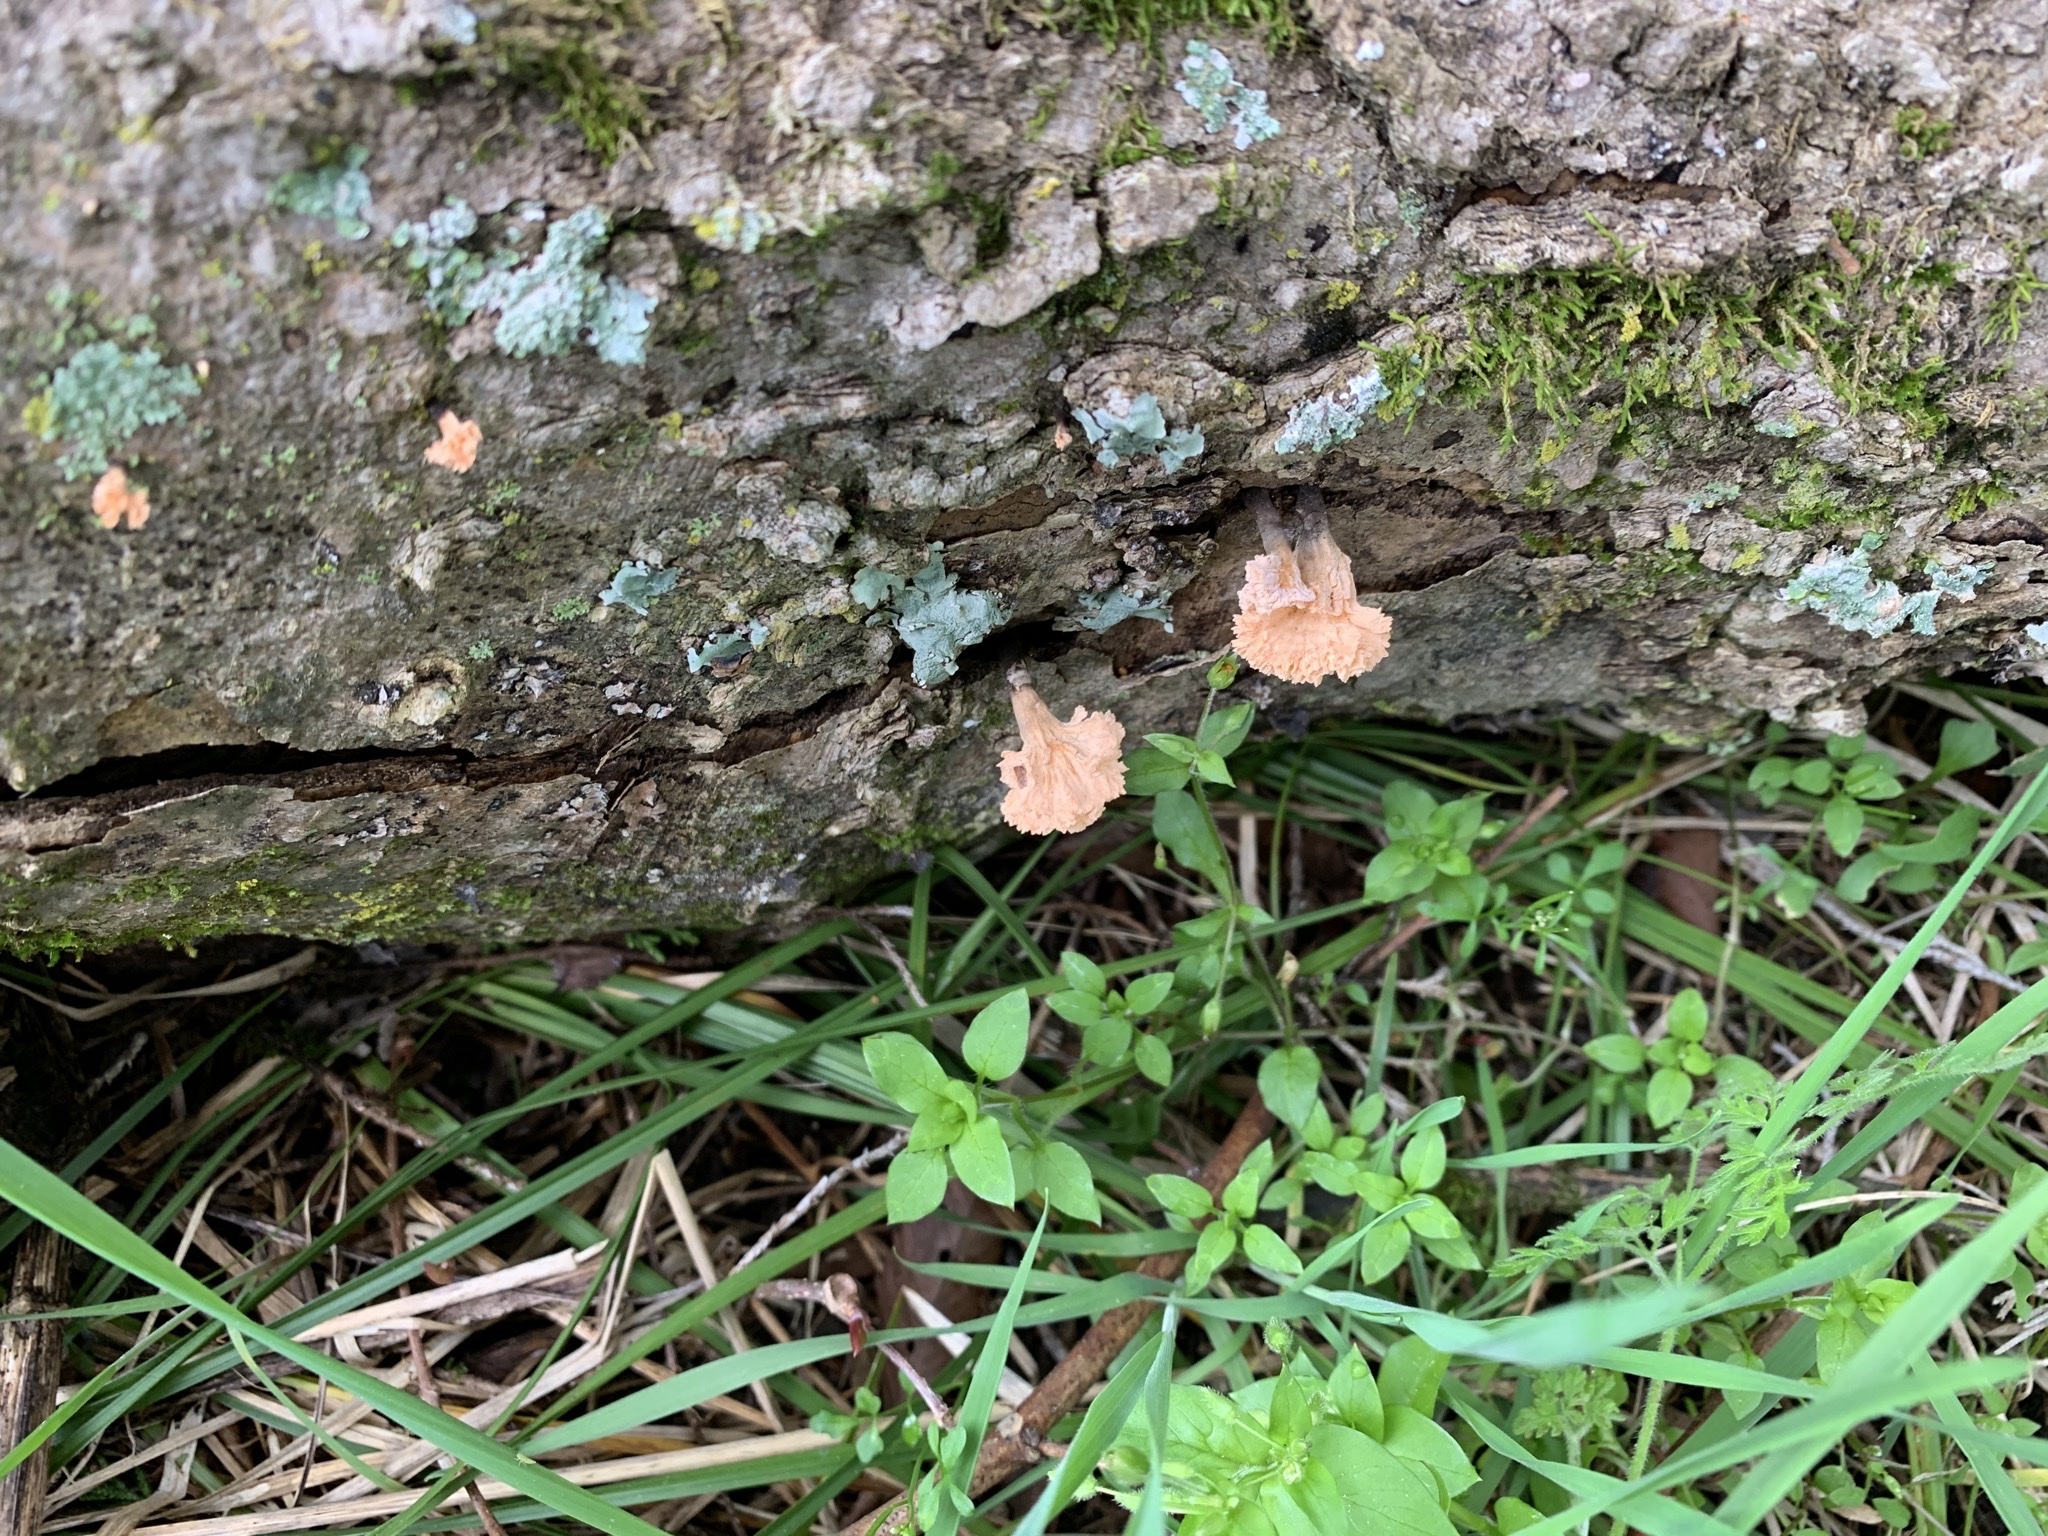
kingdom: Fungi
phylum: Ascomycota
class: Sordariomycetes
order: Xylariales
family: Xylariaceae
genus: Xylaria
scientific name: Xylaria cubensis
